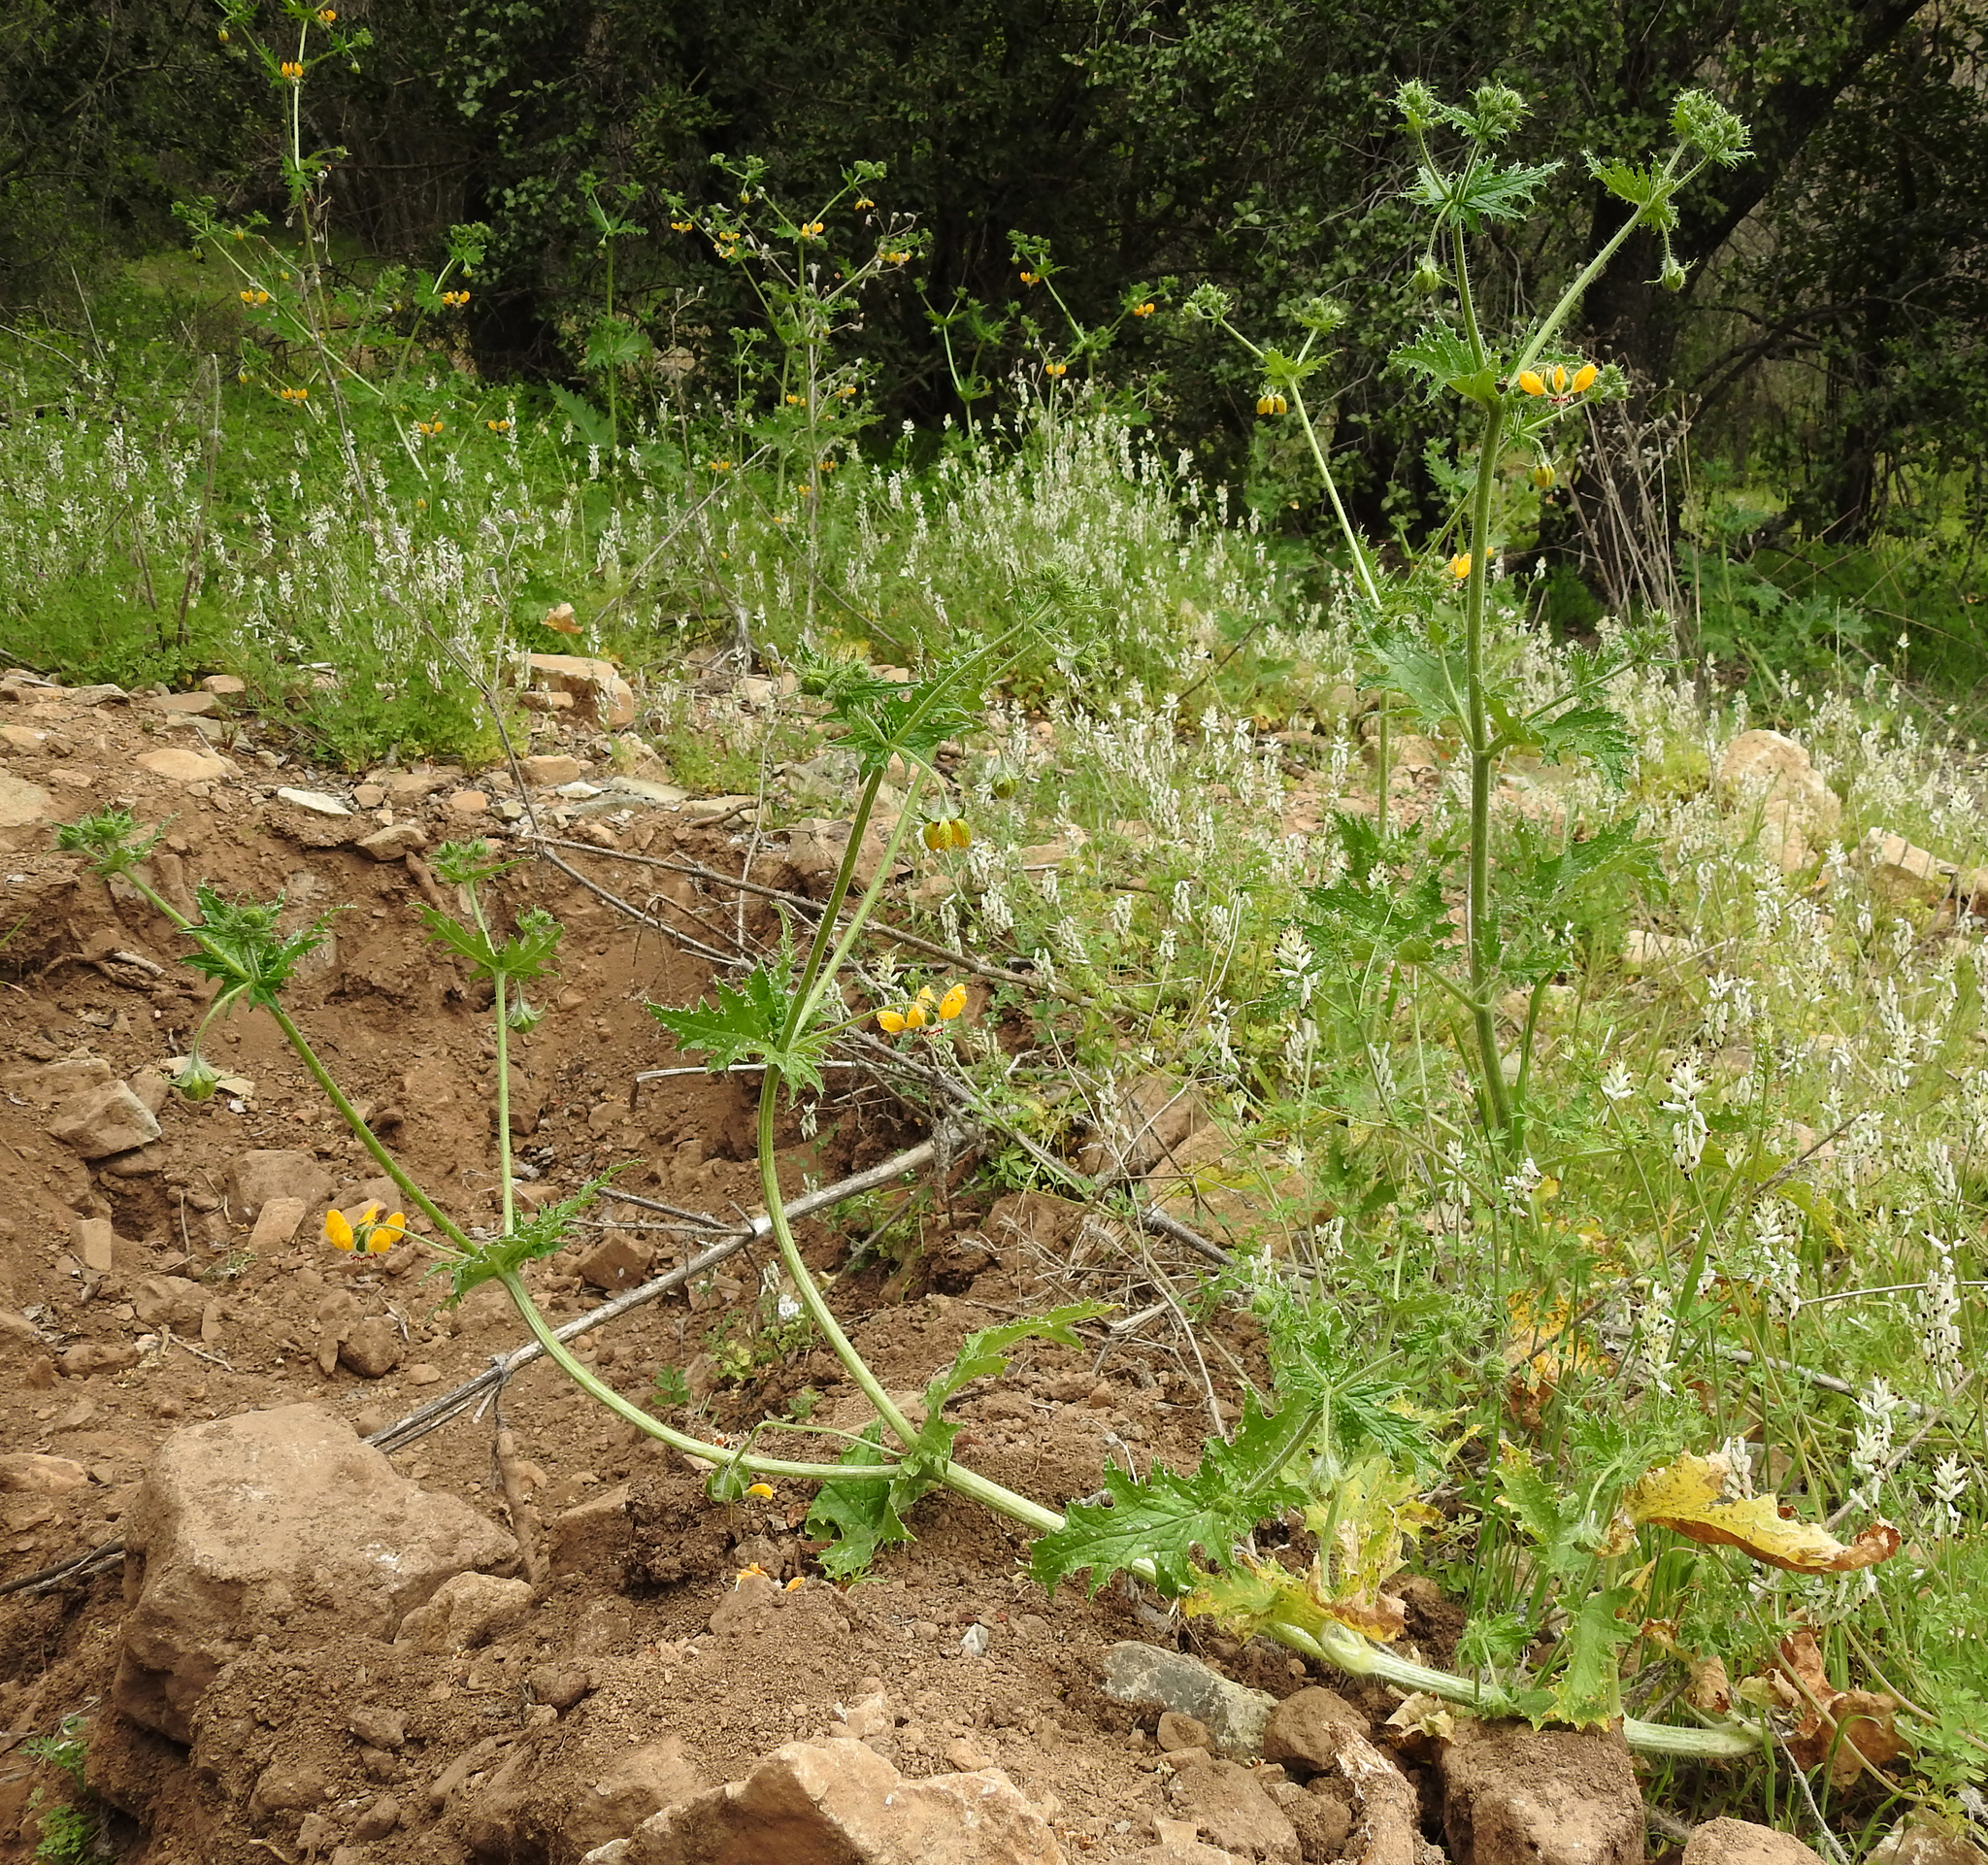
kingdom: Plantae
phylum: Tracheophyta
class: Magnoliopsida
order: Cornales
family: Loasaceae
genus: Loasa
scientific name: Loasa placei
